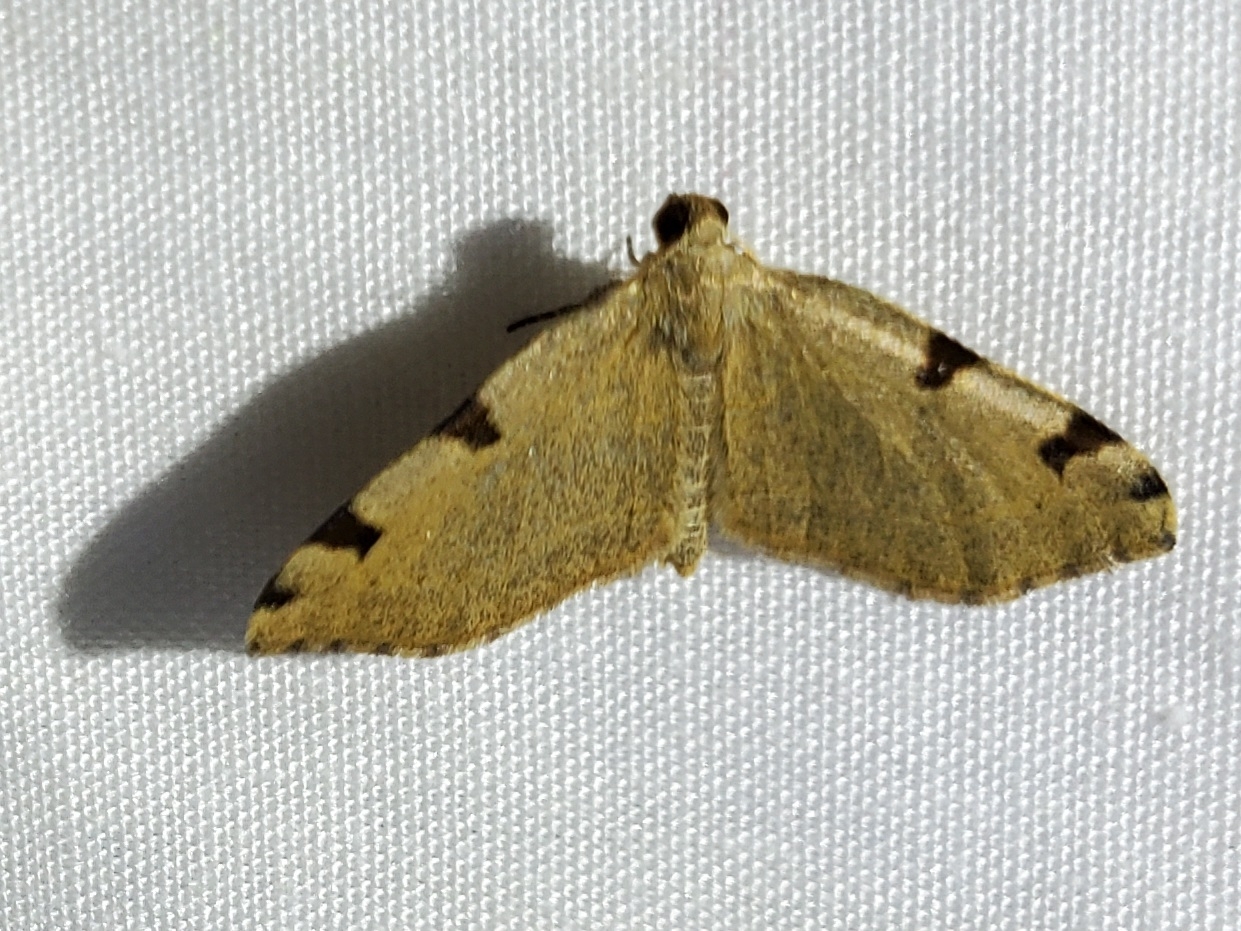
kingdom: Animalia
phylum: Arthropoda
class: Insecta
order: Lepidoptera
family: Geometridae
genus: Heterophleps
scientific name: Heterophleps triguttaria
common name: Three-spotted fillip
